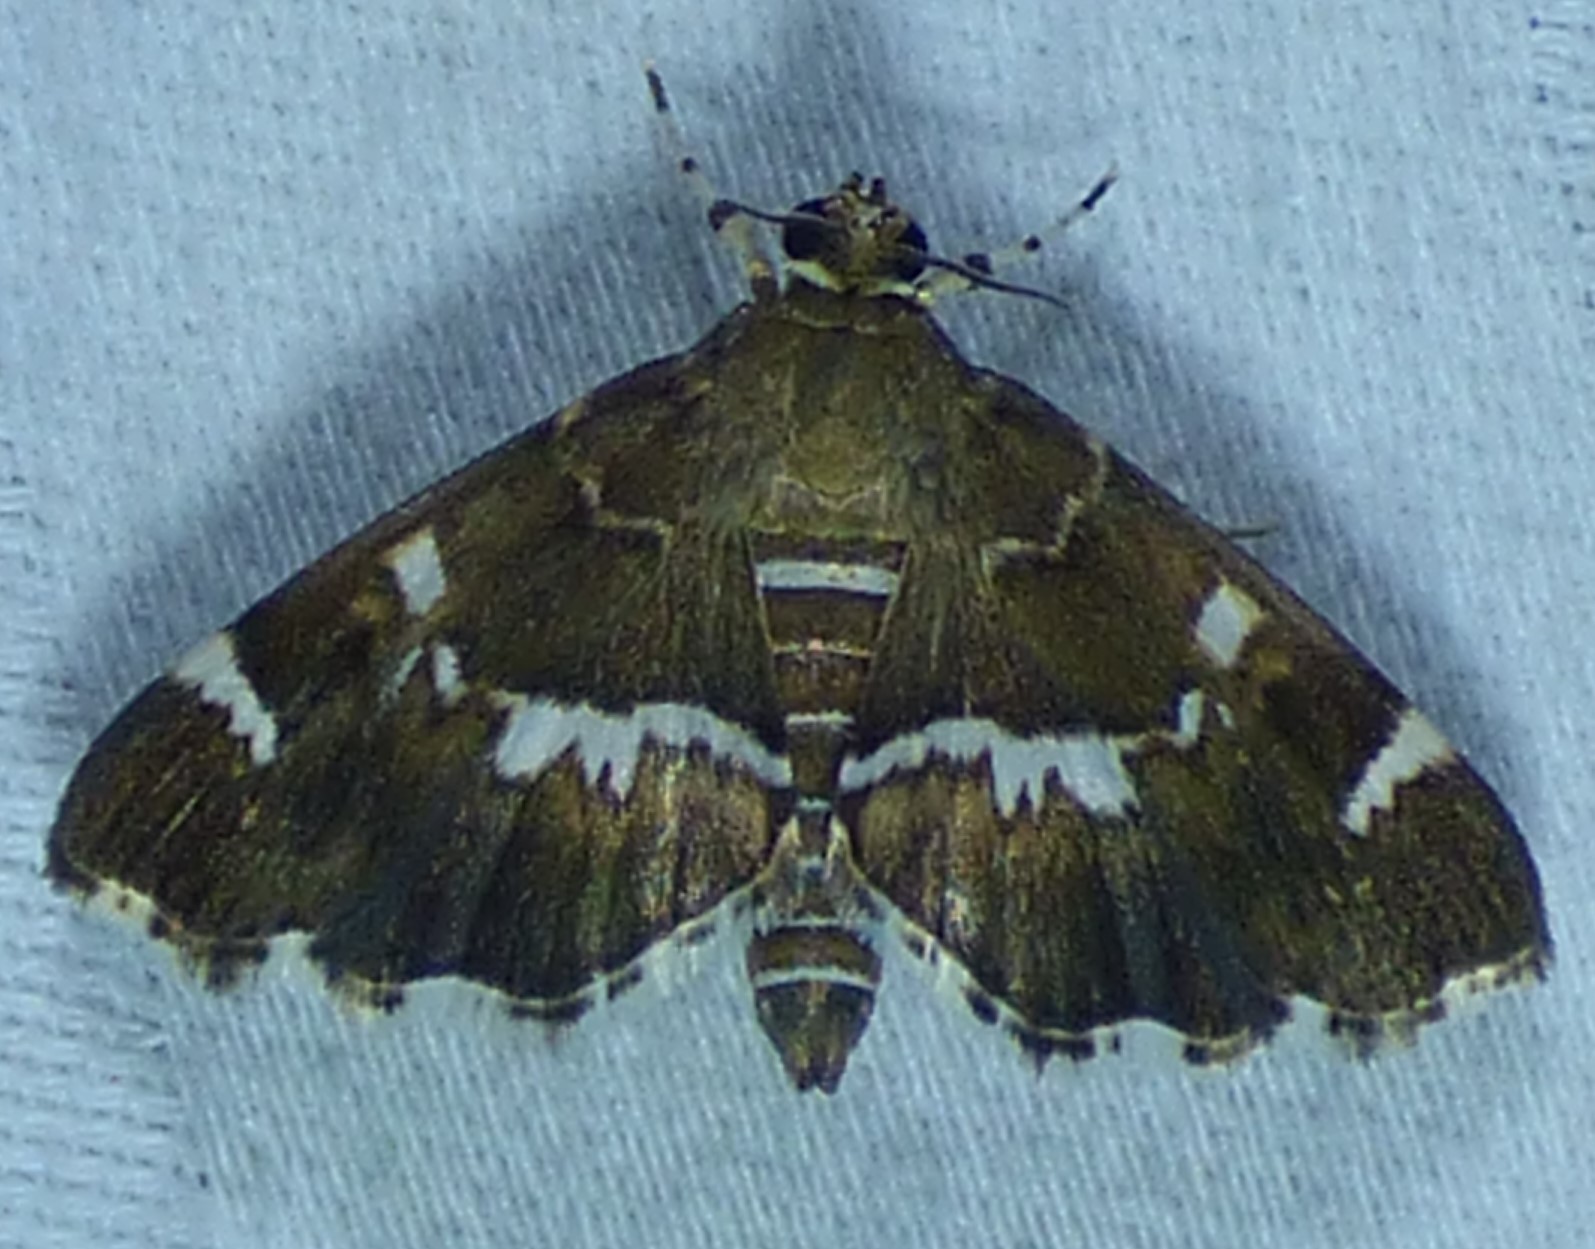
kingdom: Animalia
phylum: Arthropoda
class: Insecta
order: Lepidoptera
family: Crambidae
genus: Hymenia
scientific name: Hymenia perspectalis
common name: Spotted beet webworm
